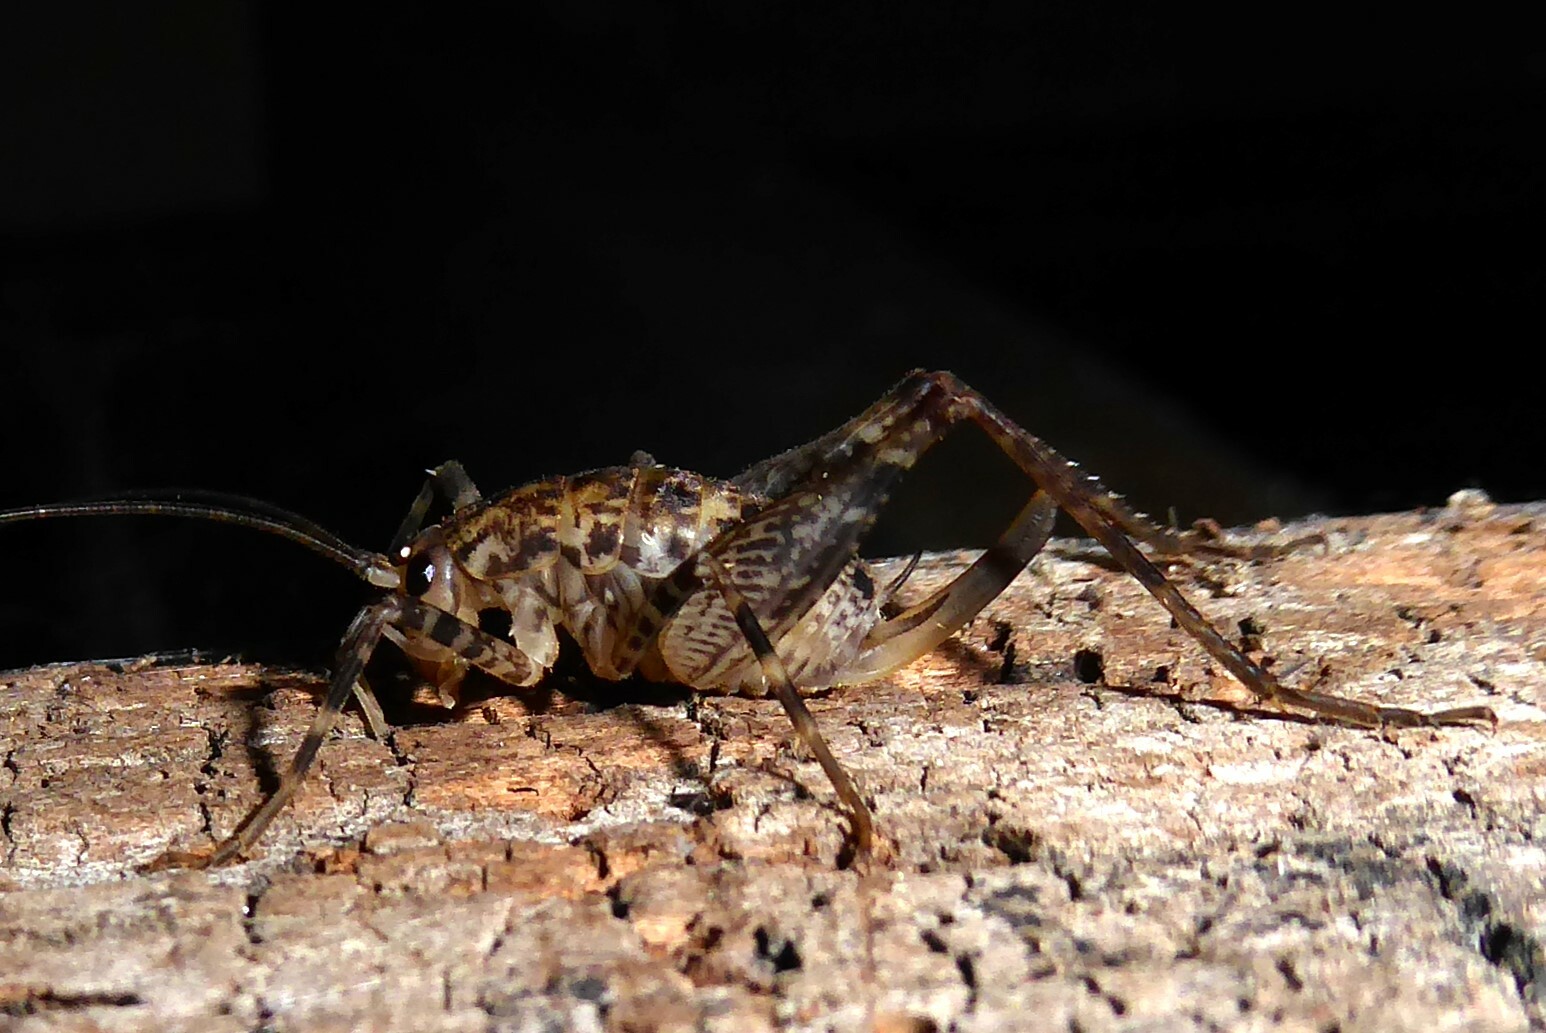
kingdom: Animalia
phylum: Arthropoda
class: Insecta
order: Orthoptera
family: Rhaphidophoridae
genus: Pleioplectron
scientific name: Pleioplectron simplex
